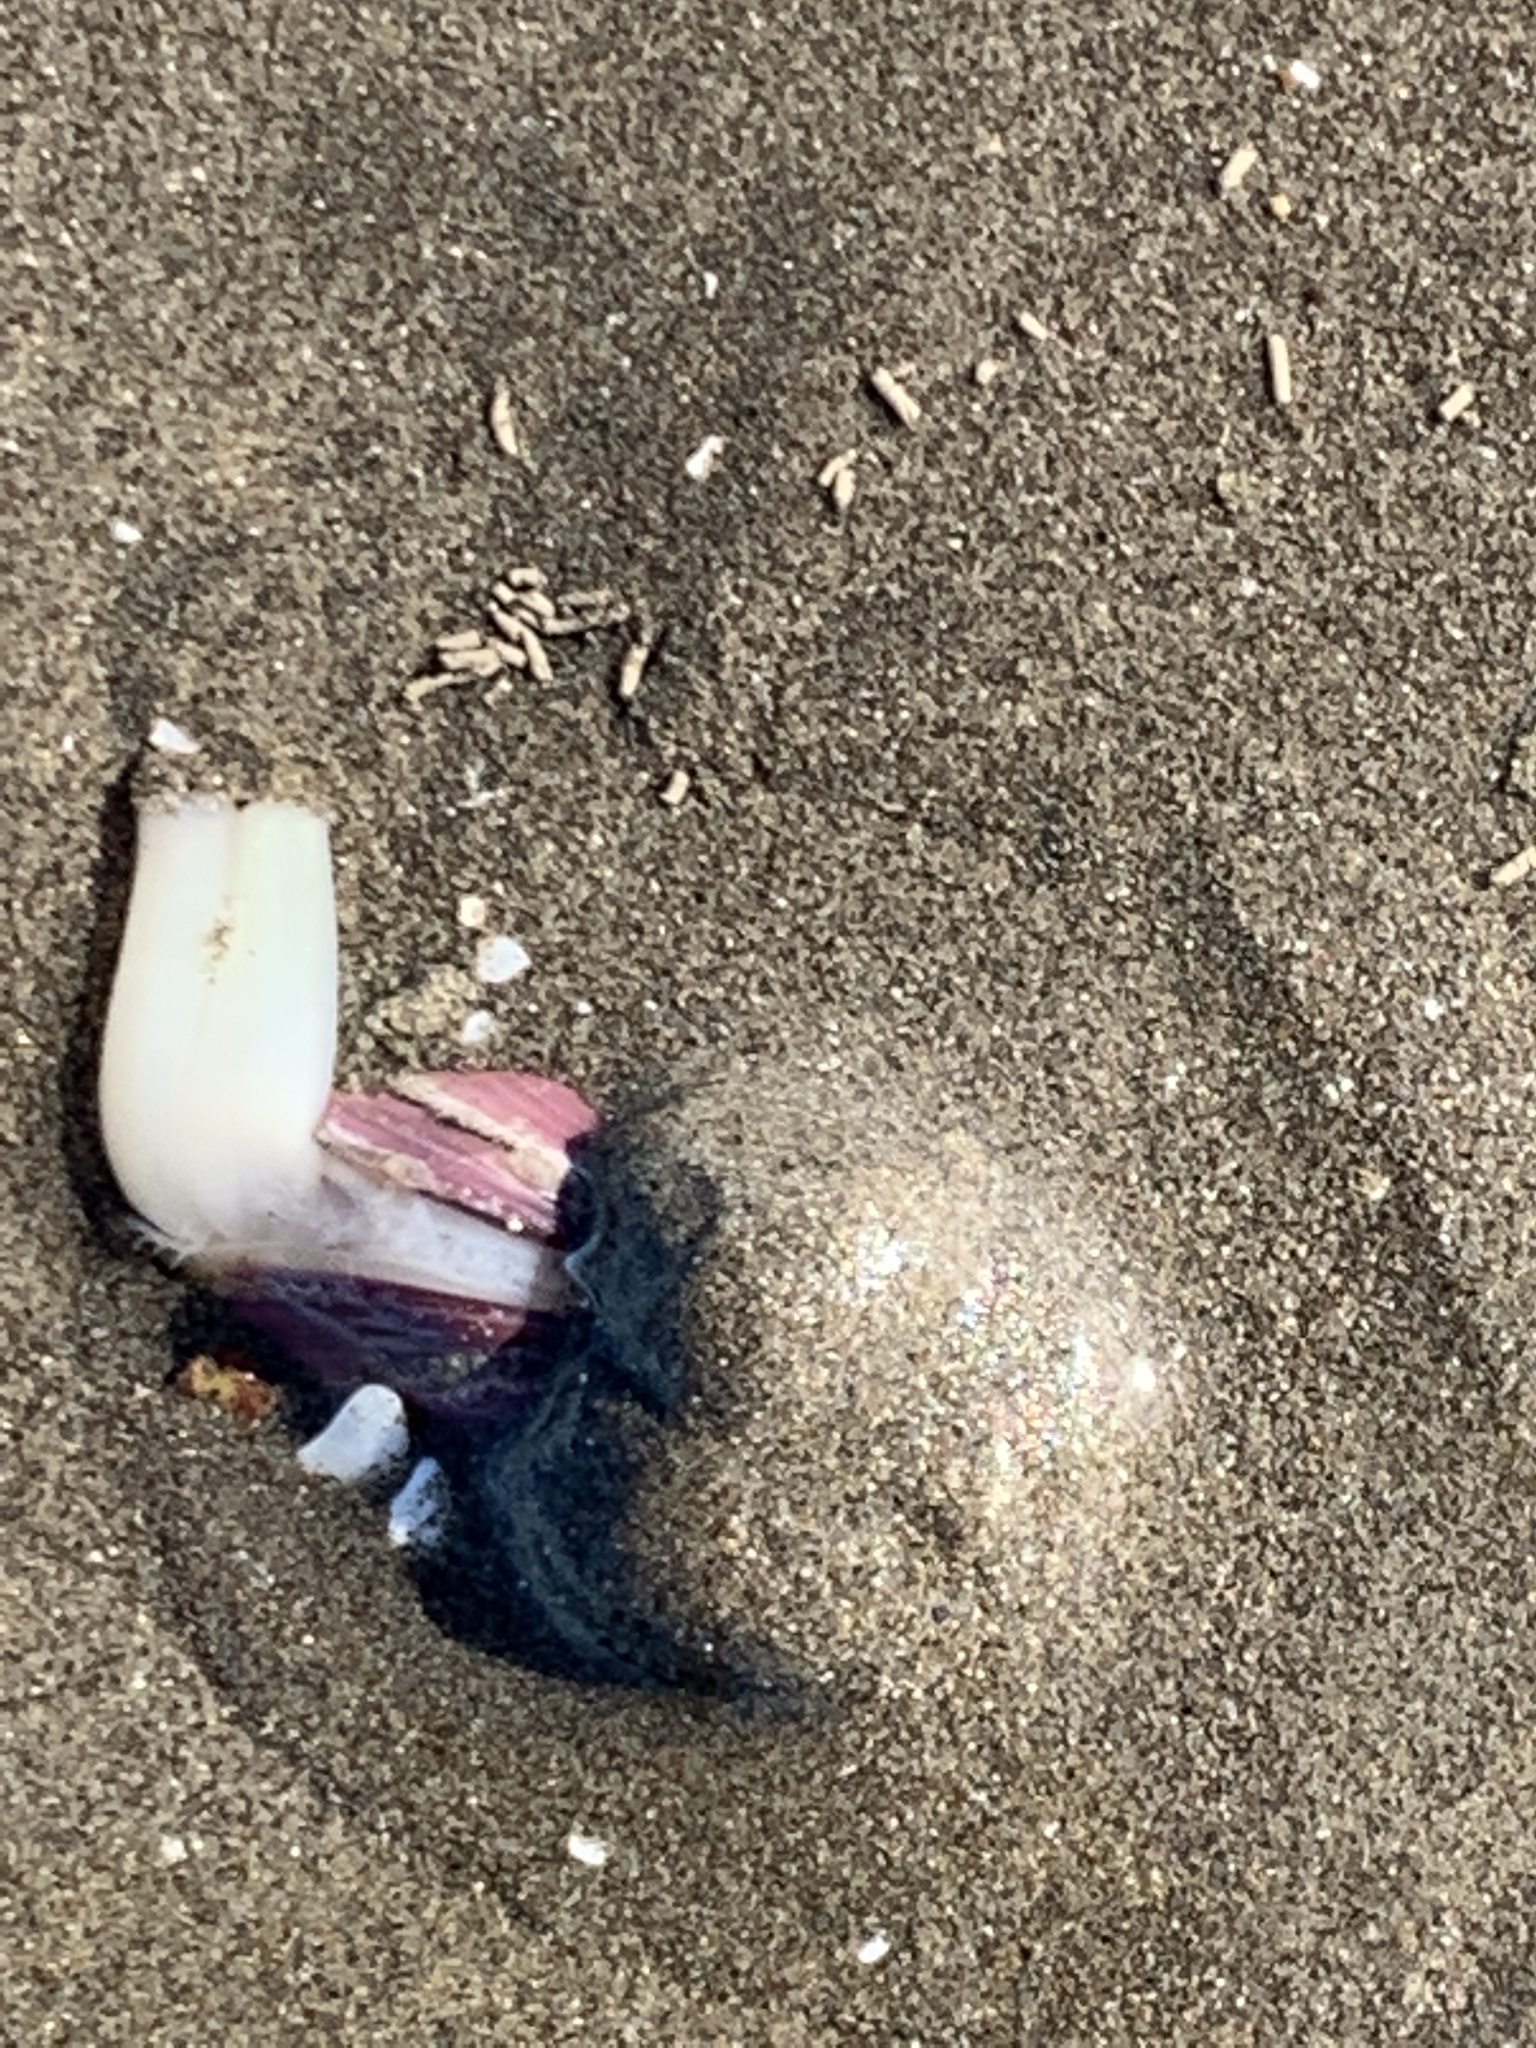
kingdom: Animalia
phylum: Mollusca
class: Bivalvia
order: Venerida
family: Veneridae
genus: Eucallista
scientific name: Eucallista purpurata
